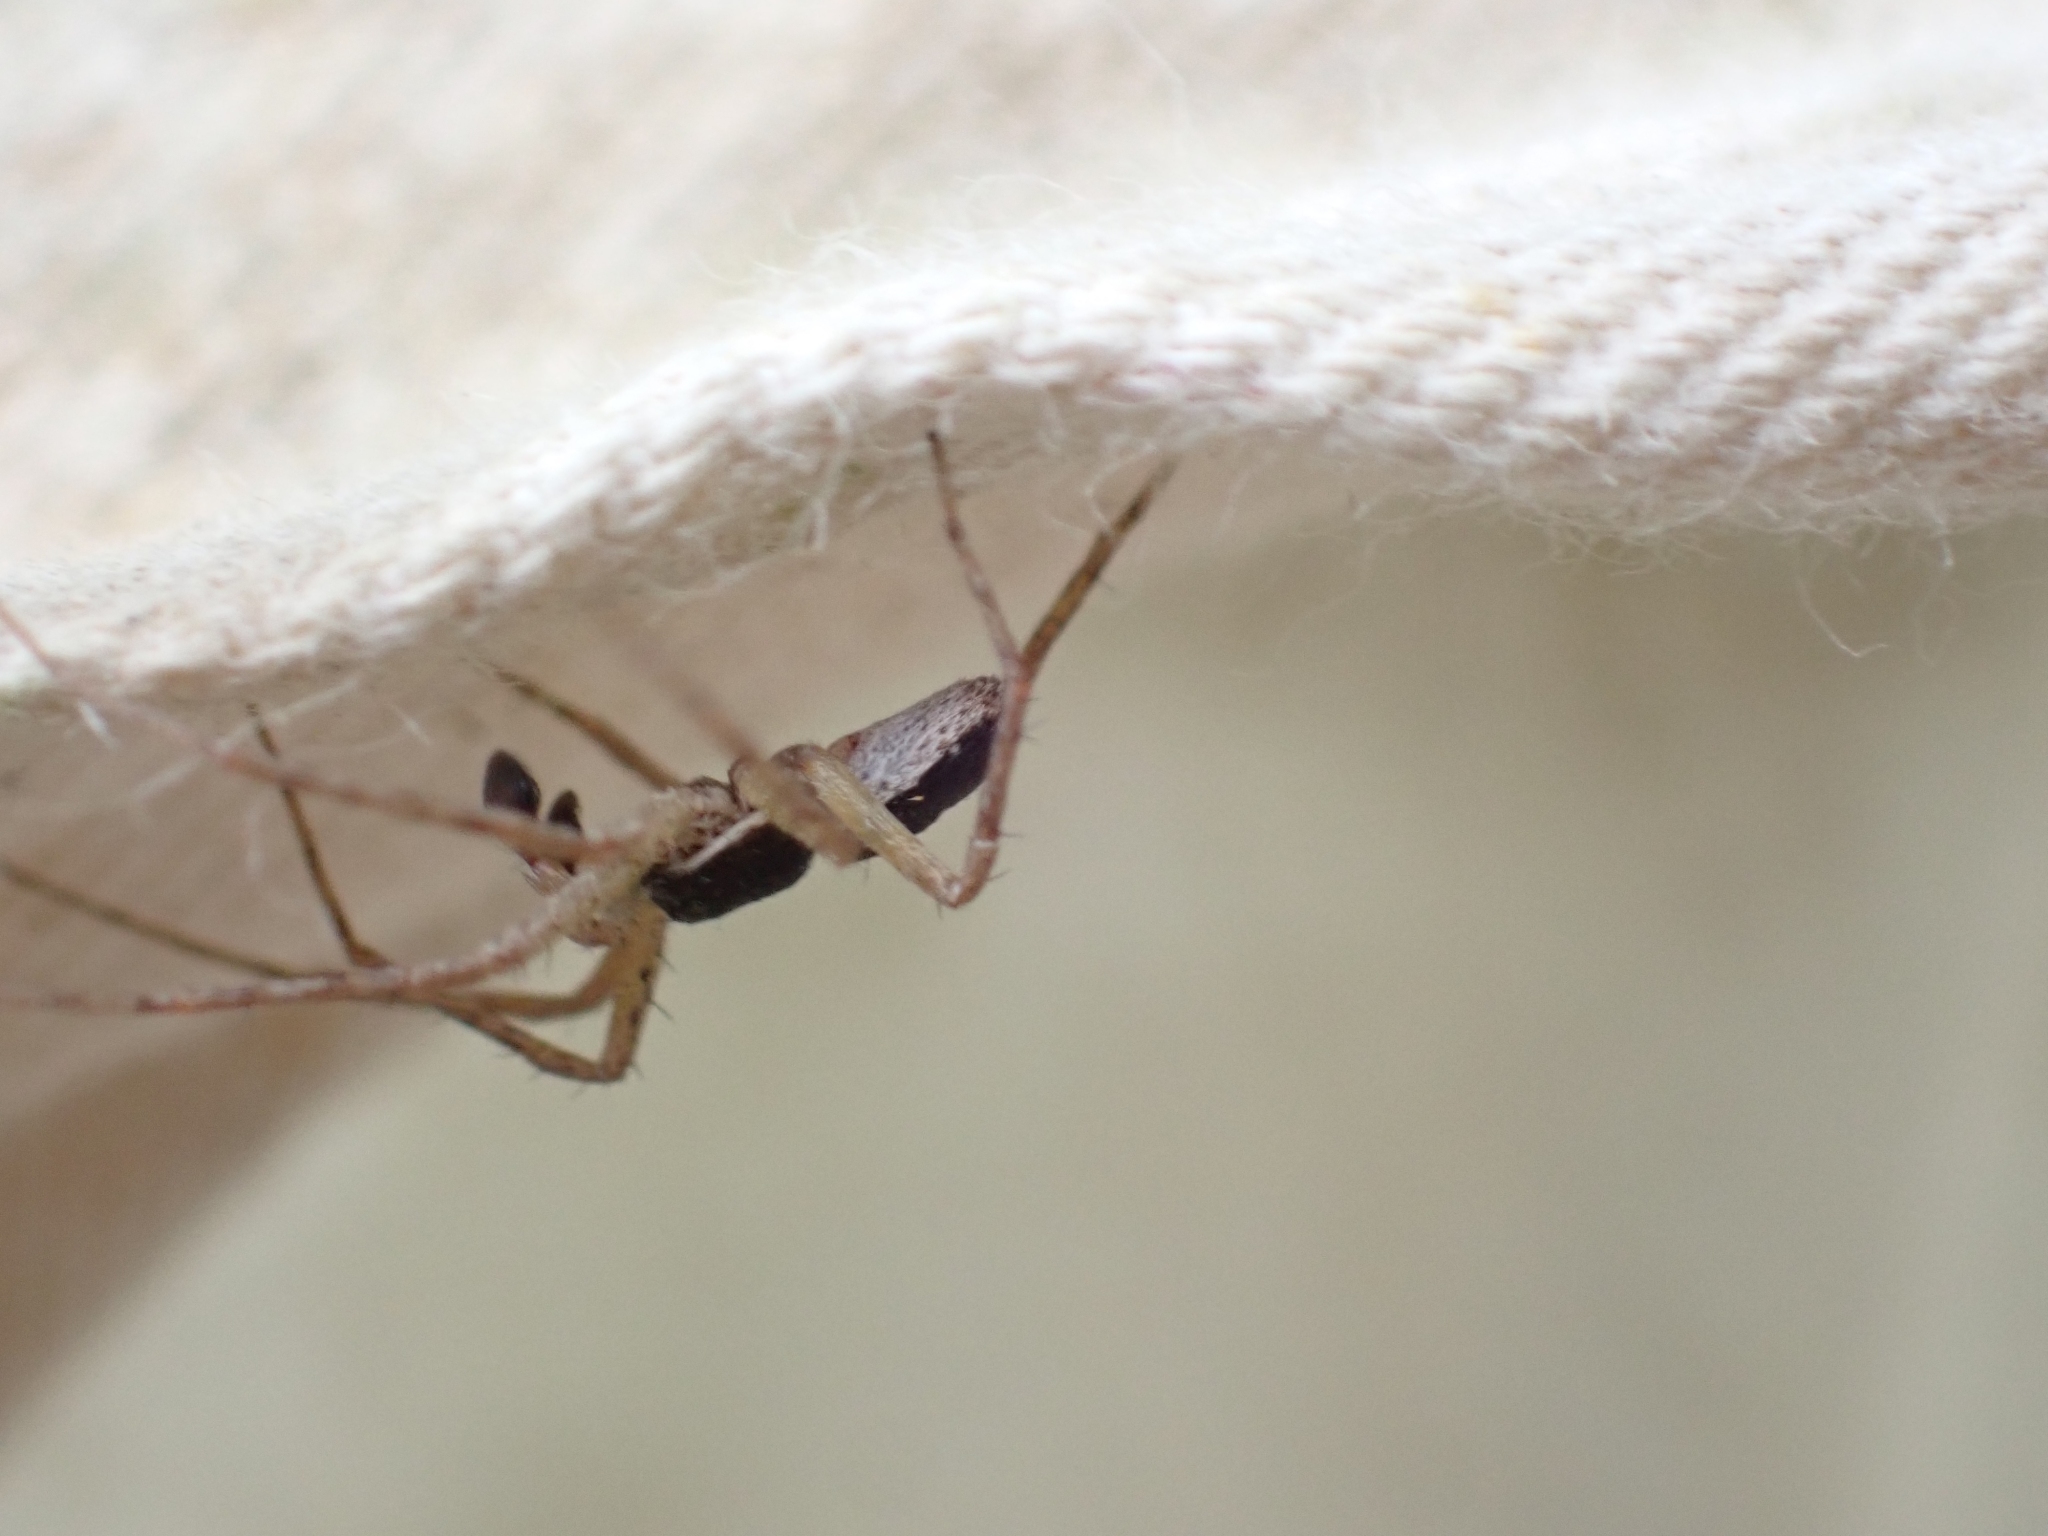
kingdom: Animalia
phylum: Arthropoda
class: Arachnida
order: Araneae
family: Philodromidae
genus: Philodromus
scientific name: Philodromus dispar
